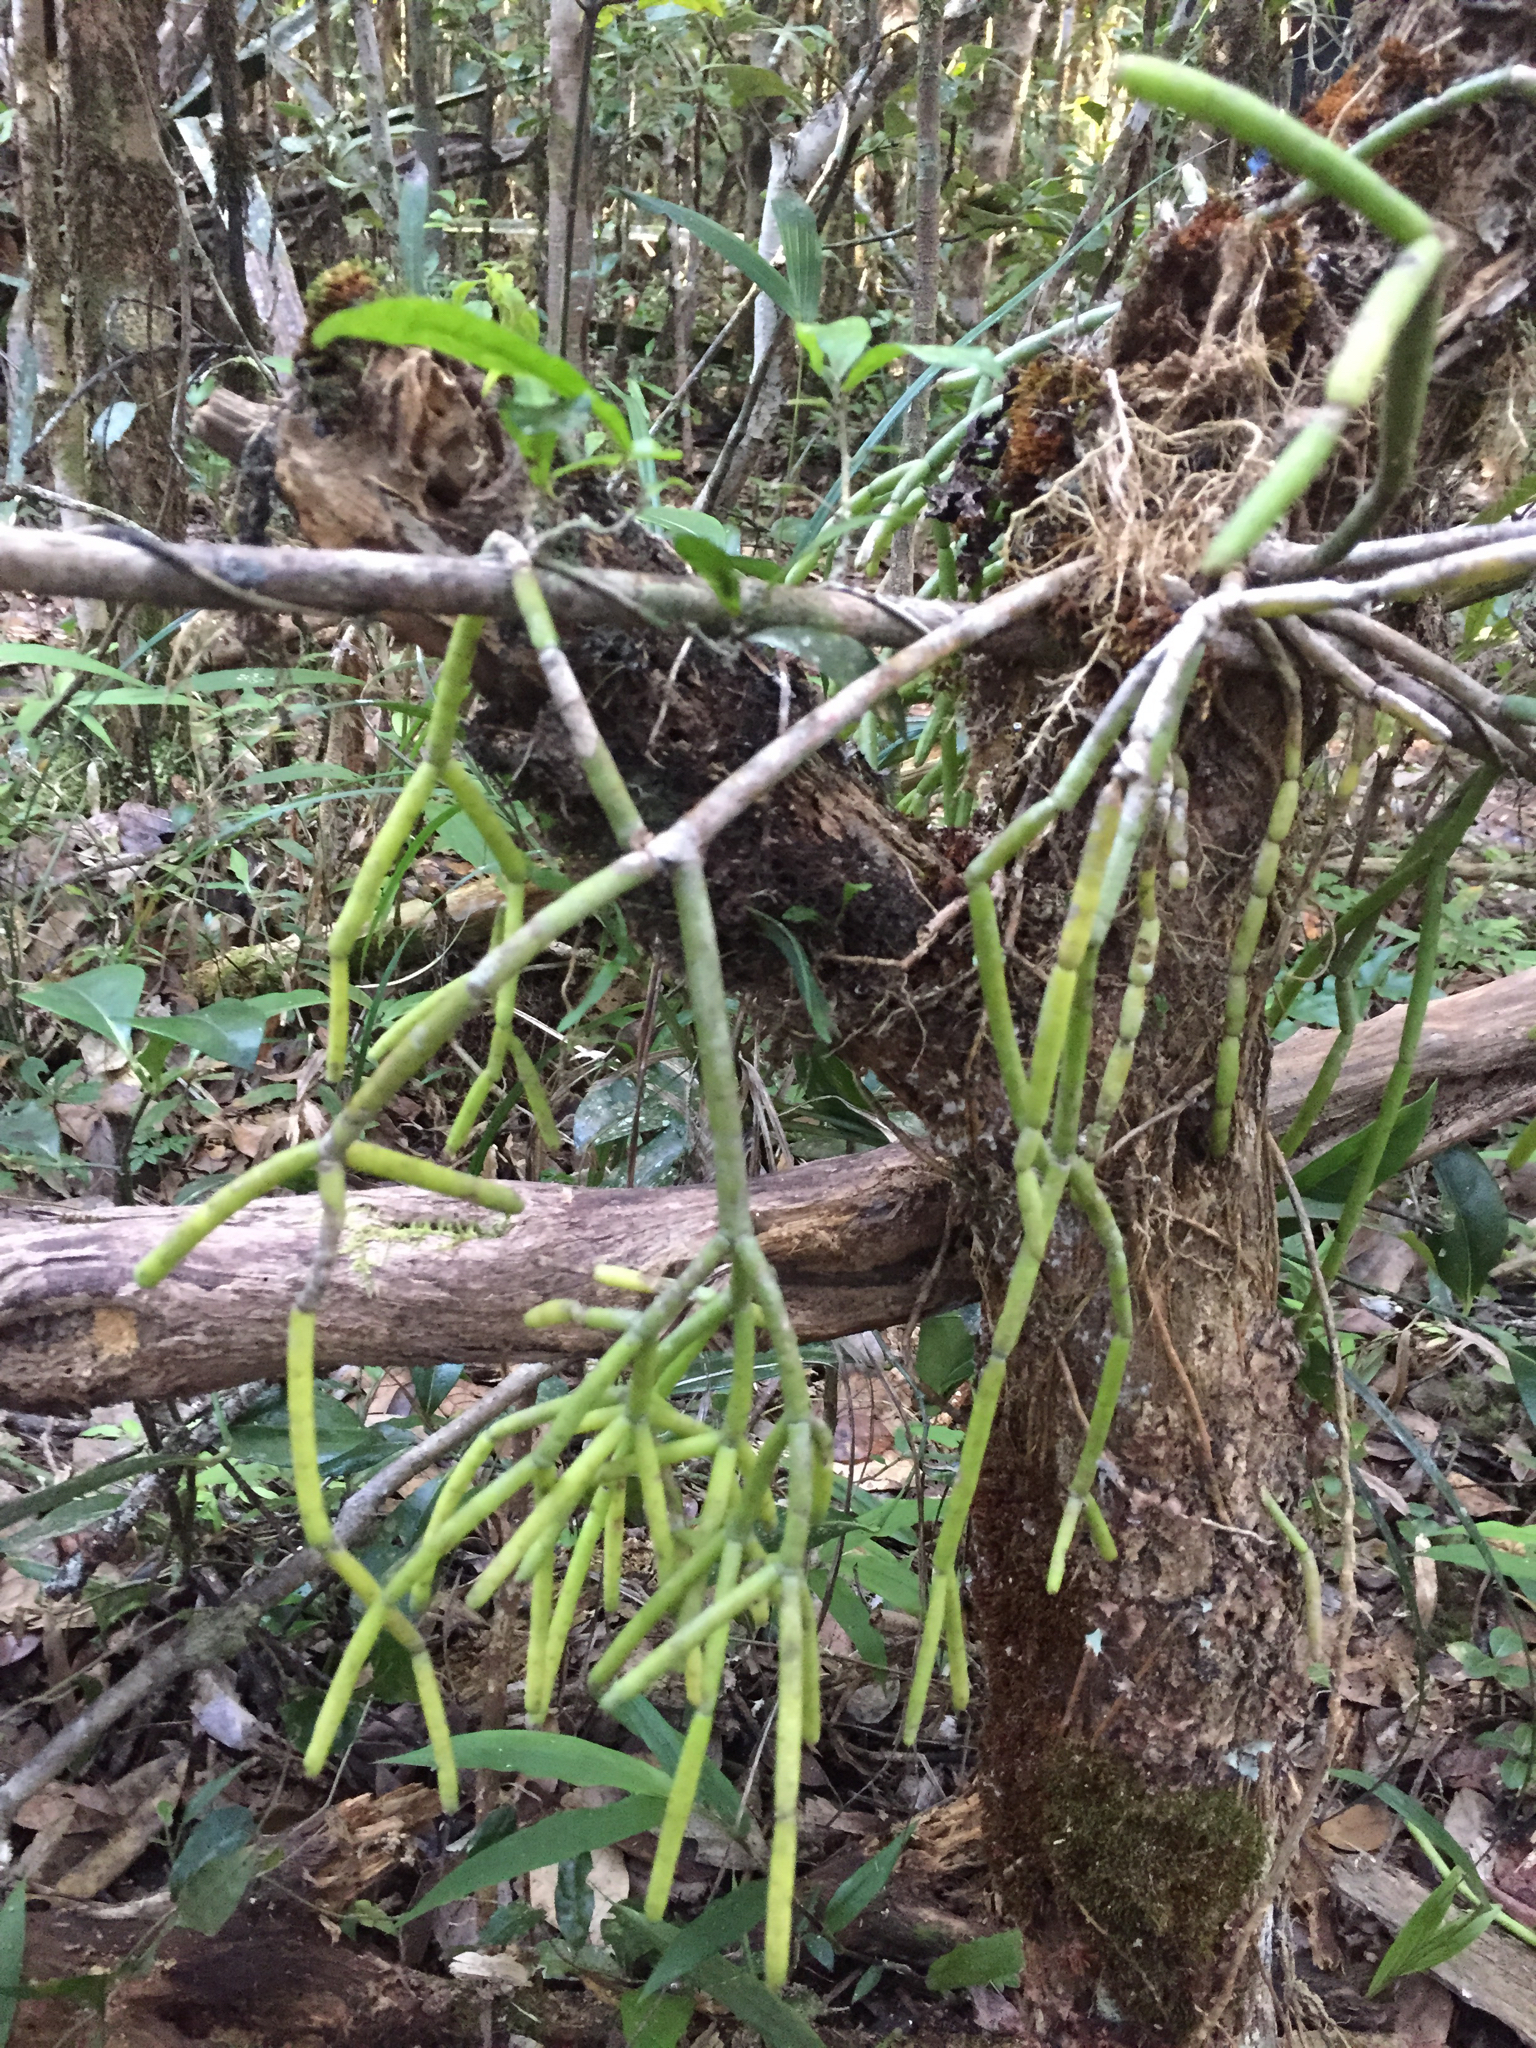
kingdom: Plantae
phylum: Tracheophyta
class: Magnoliopsida
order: Caryophyllales
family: Cactaceae
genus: Rhipsalis
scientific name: Rhipsalis baccifera
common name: Mistletoe cactus
